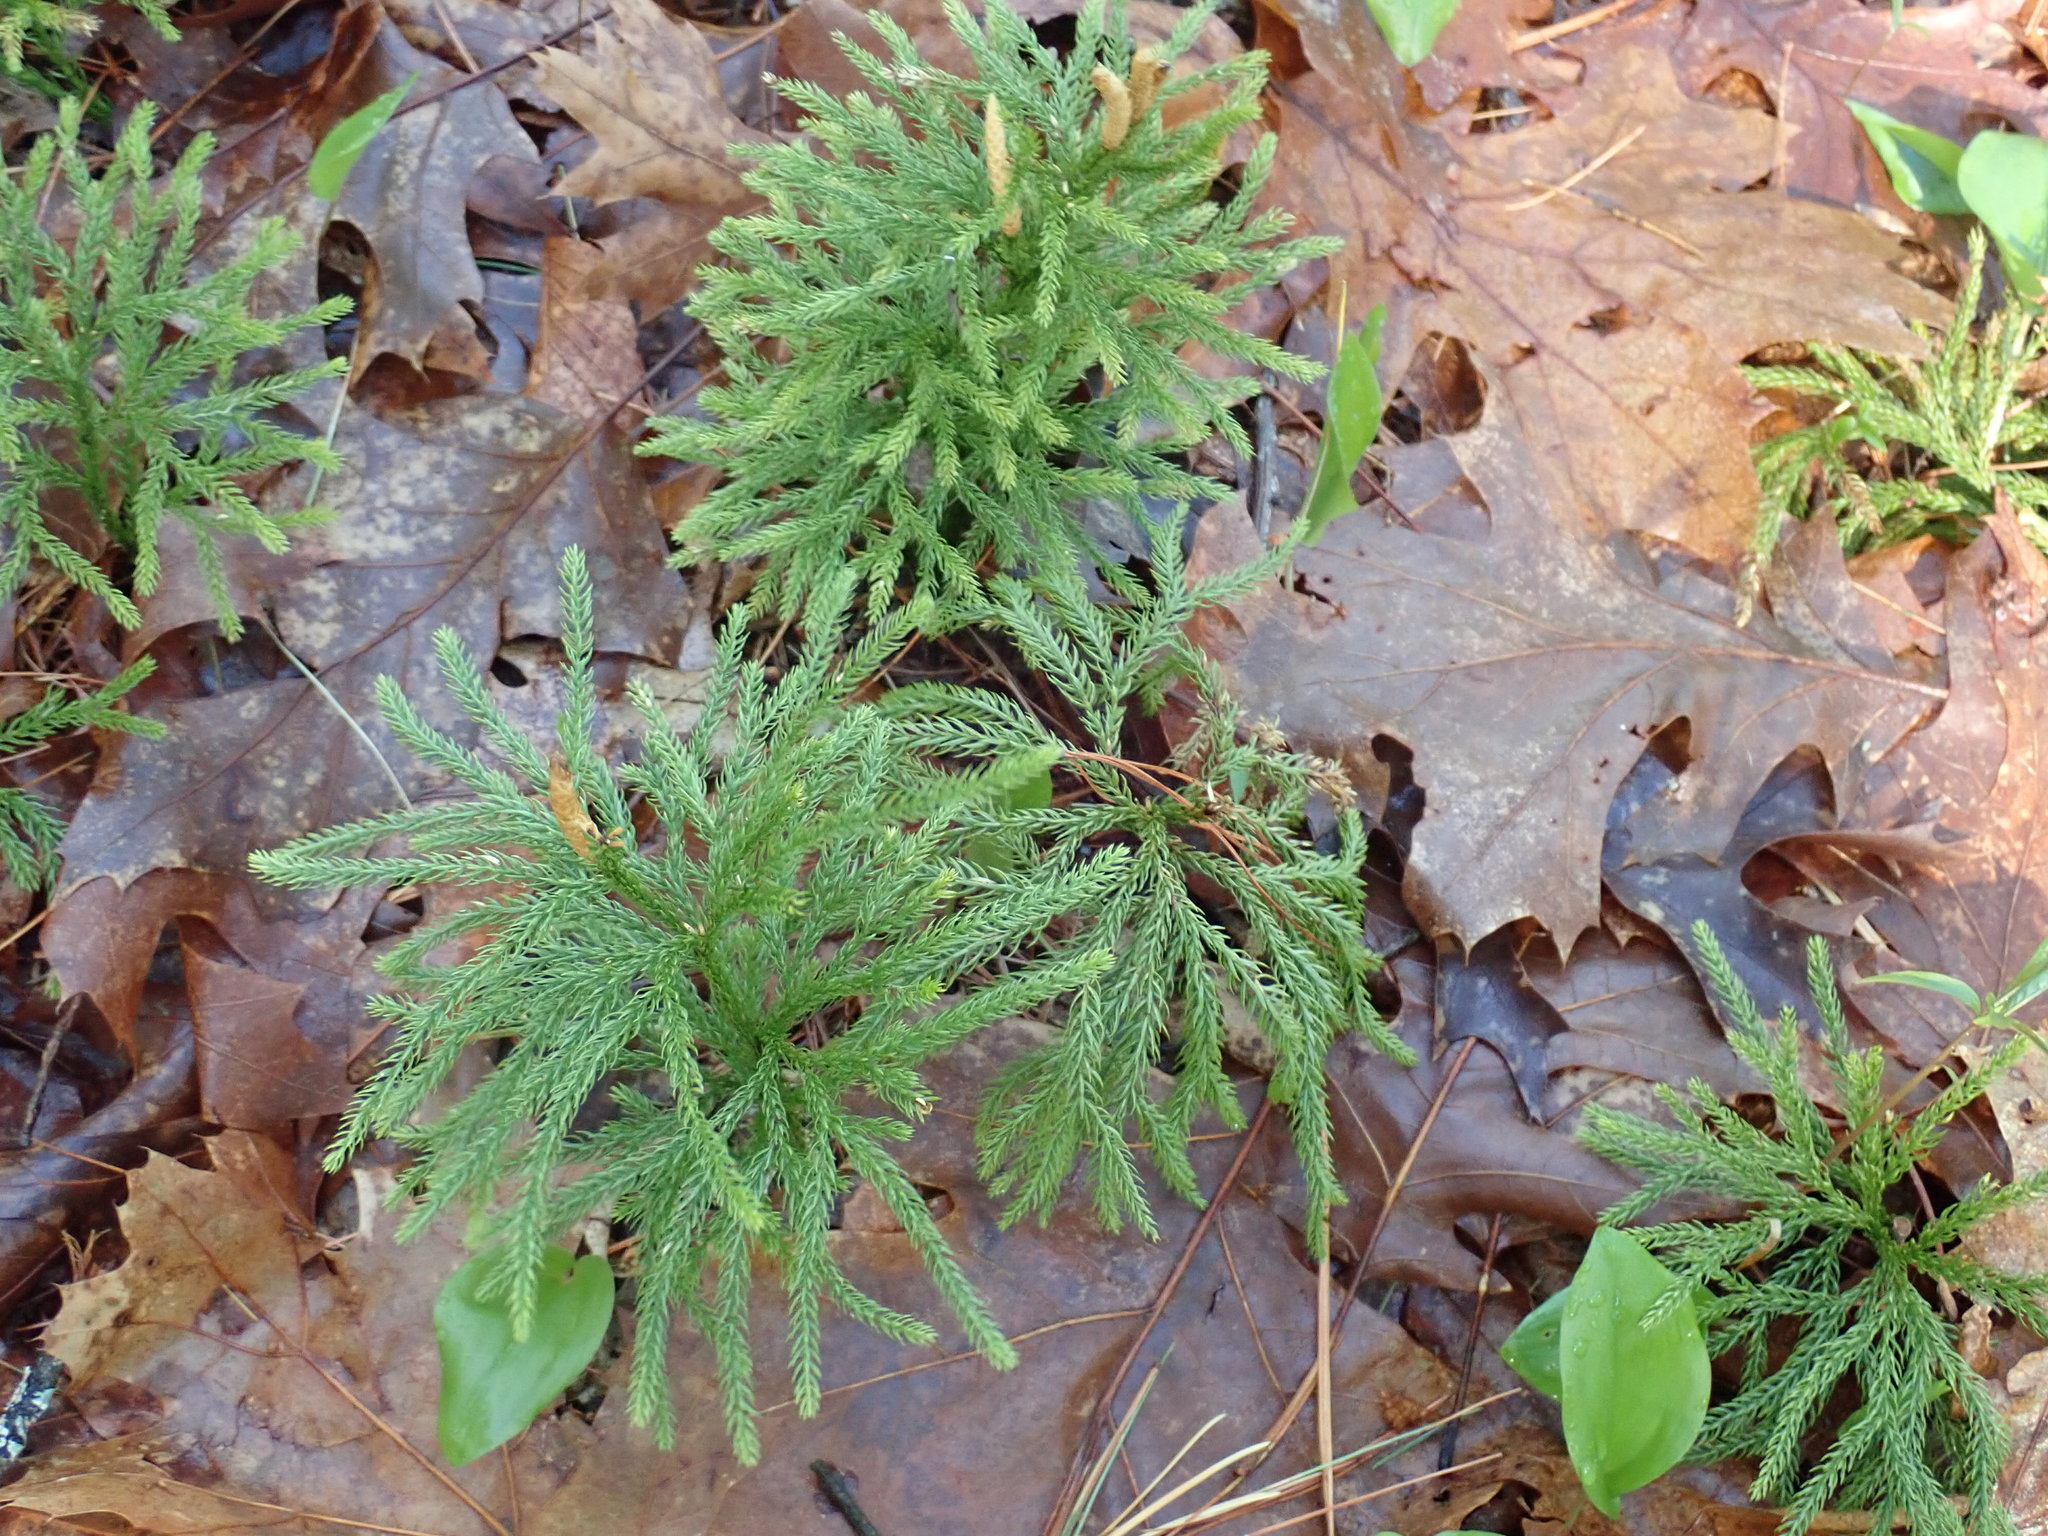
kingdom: Plantae
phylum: Tracheophyta
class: Lycopodiopsida
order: Lycopodiales
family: Lycopodiaceae
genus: Dendrolycopodium
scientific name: Dendrolycopodium hickeyi
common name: Hickey's clubmoss
